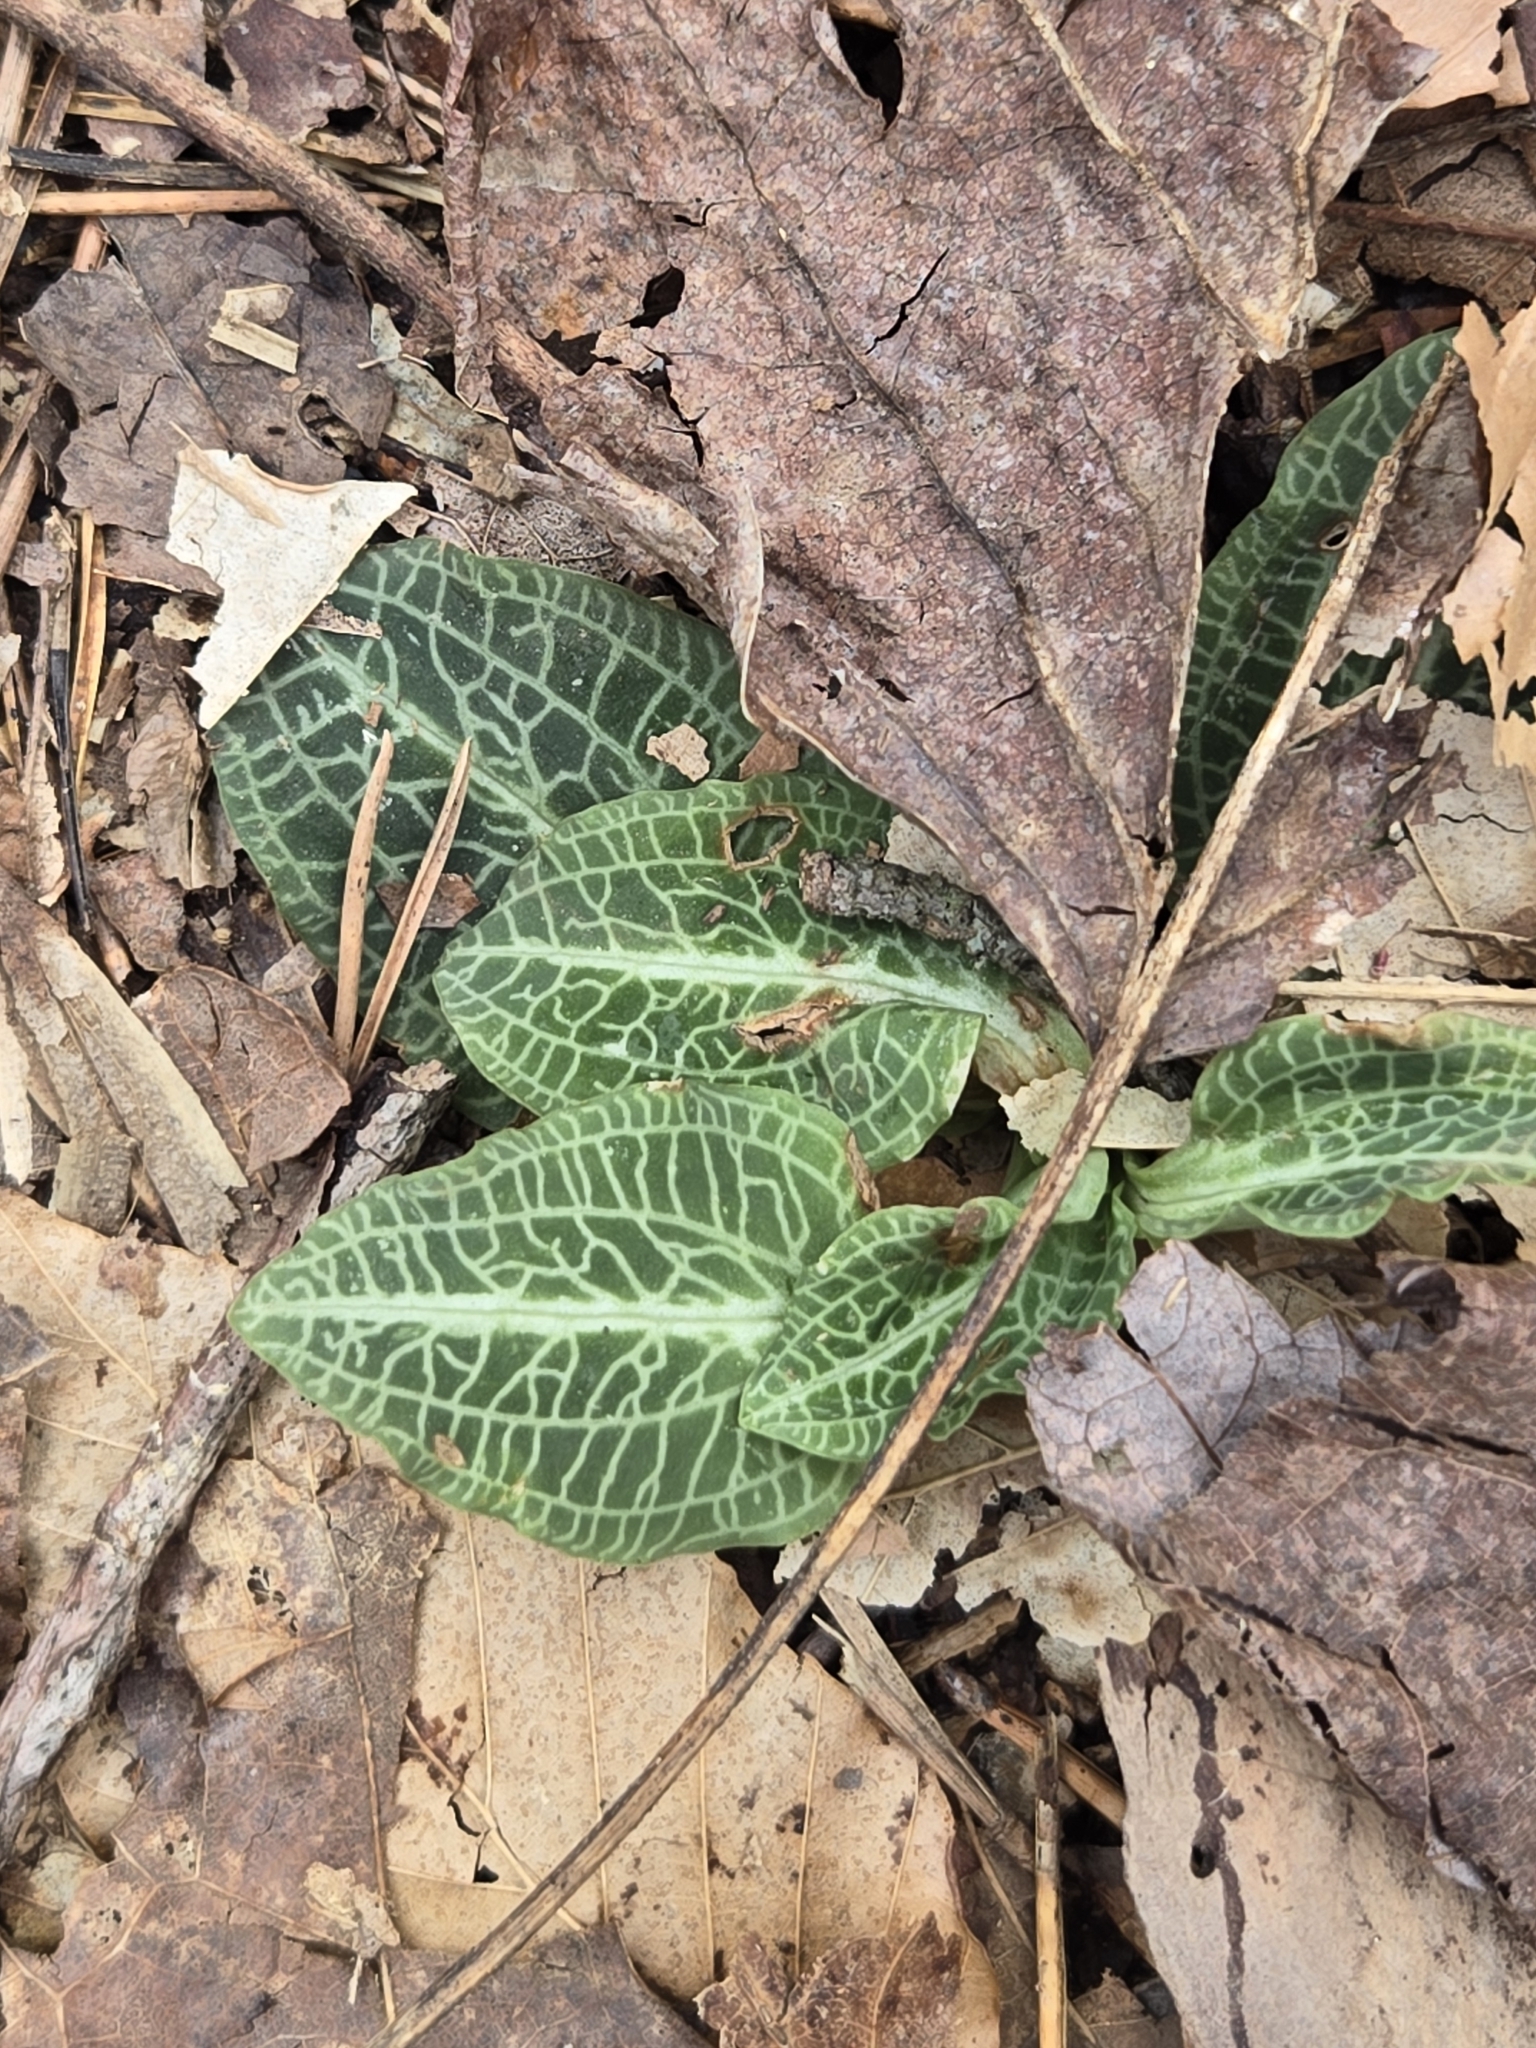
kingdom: Plantae
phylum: Tracheophyta
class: Liliopsida
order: Asparagales
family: Orchidaceae
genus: Goodyera
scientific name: Goodyera pubescens
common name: Downy rattlesnake-plantain
